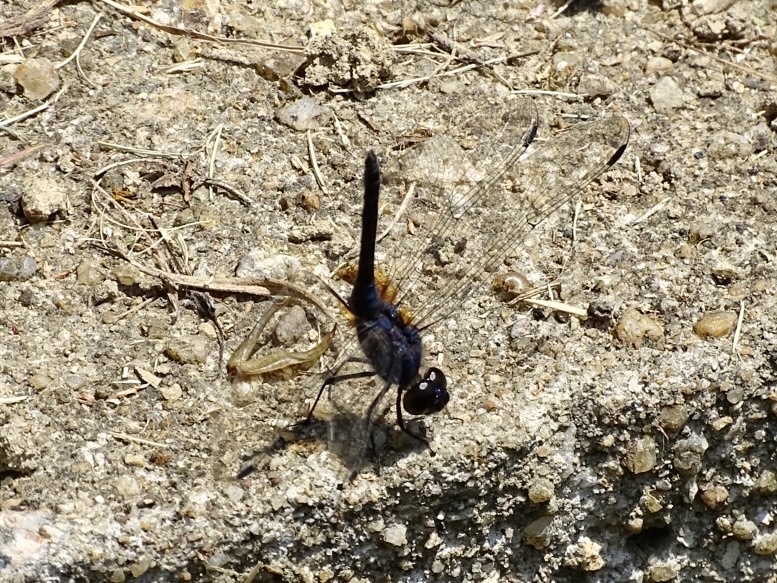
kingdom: Animalia
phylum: Arthropoda
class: Insecta
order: Odonata
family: Libellulidae
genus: Trithemis
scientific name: Trithemis festiva
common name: Indigo dropwing
